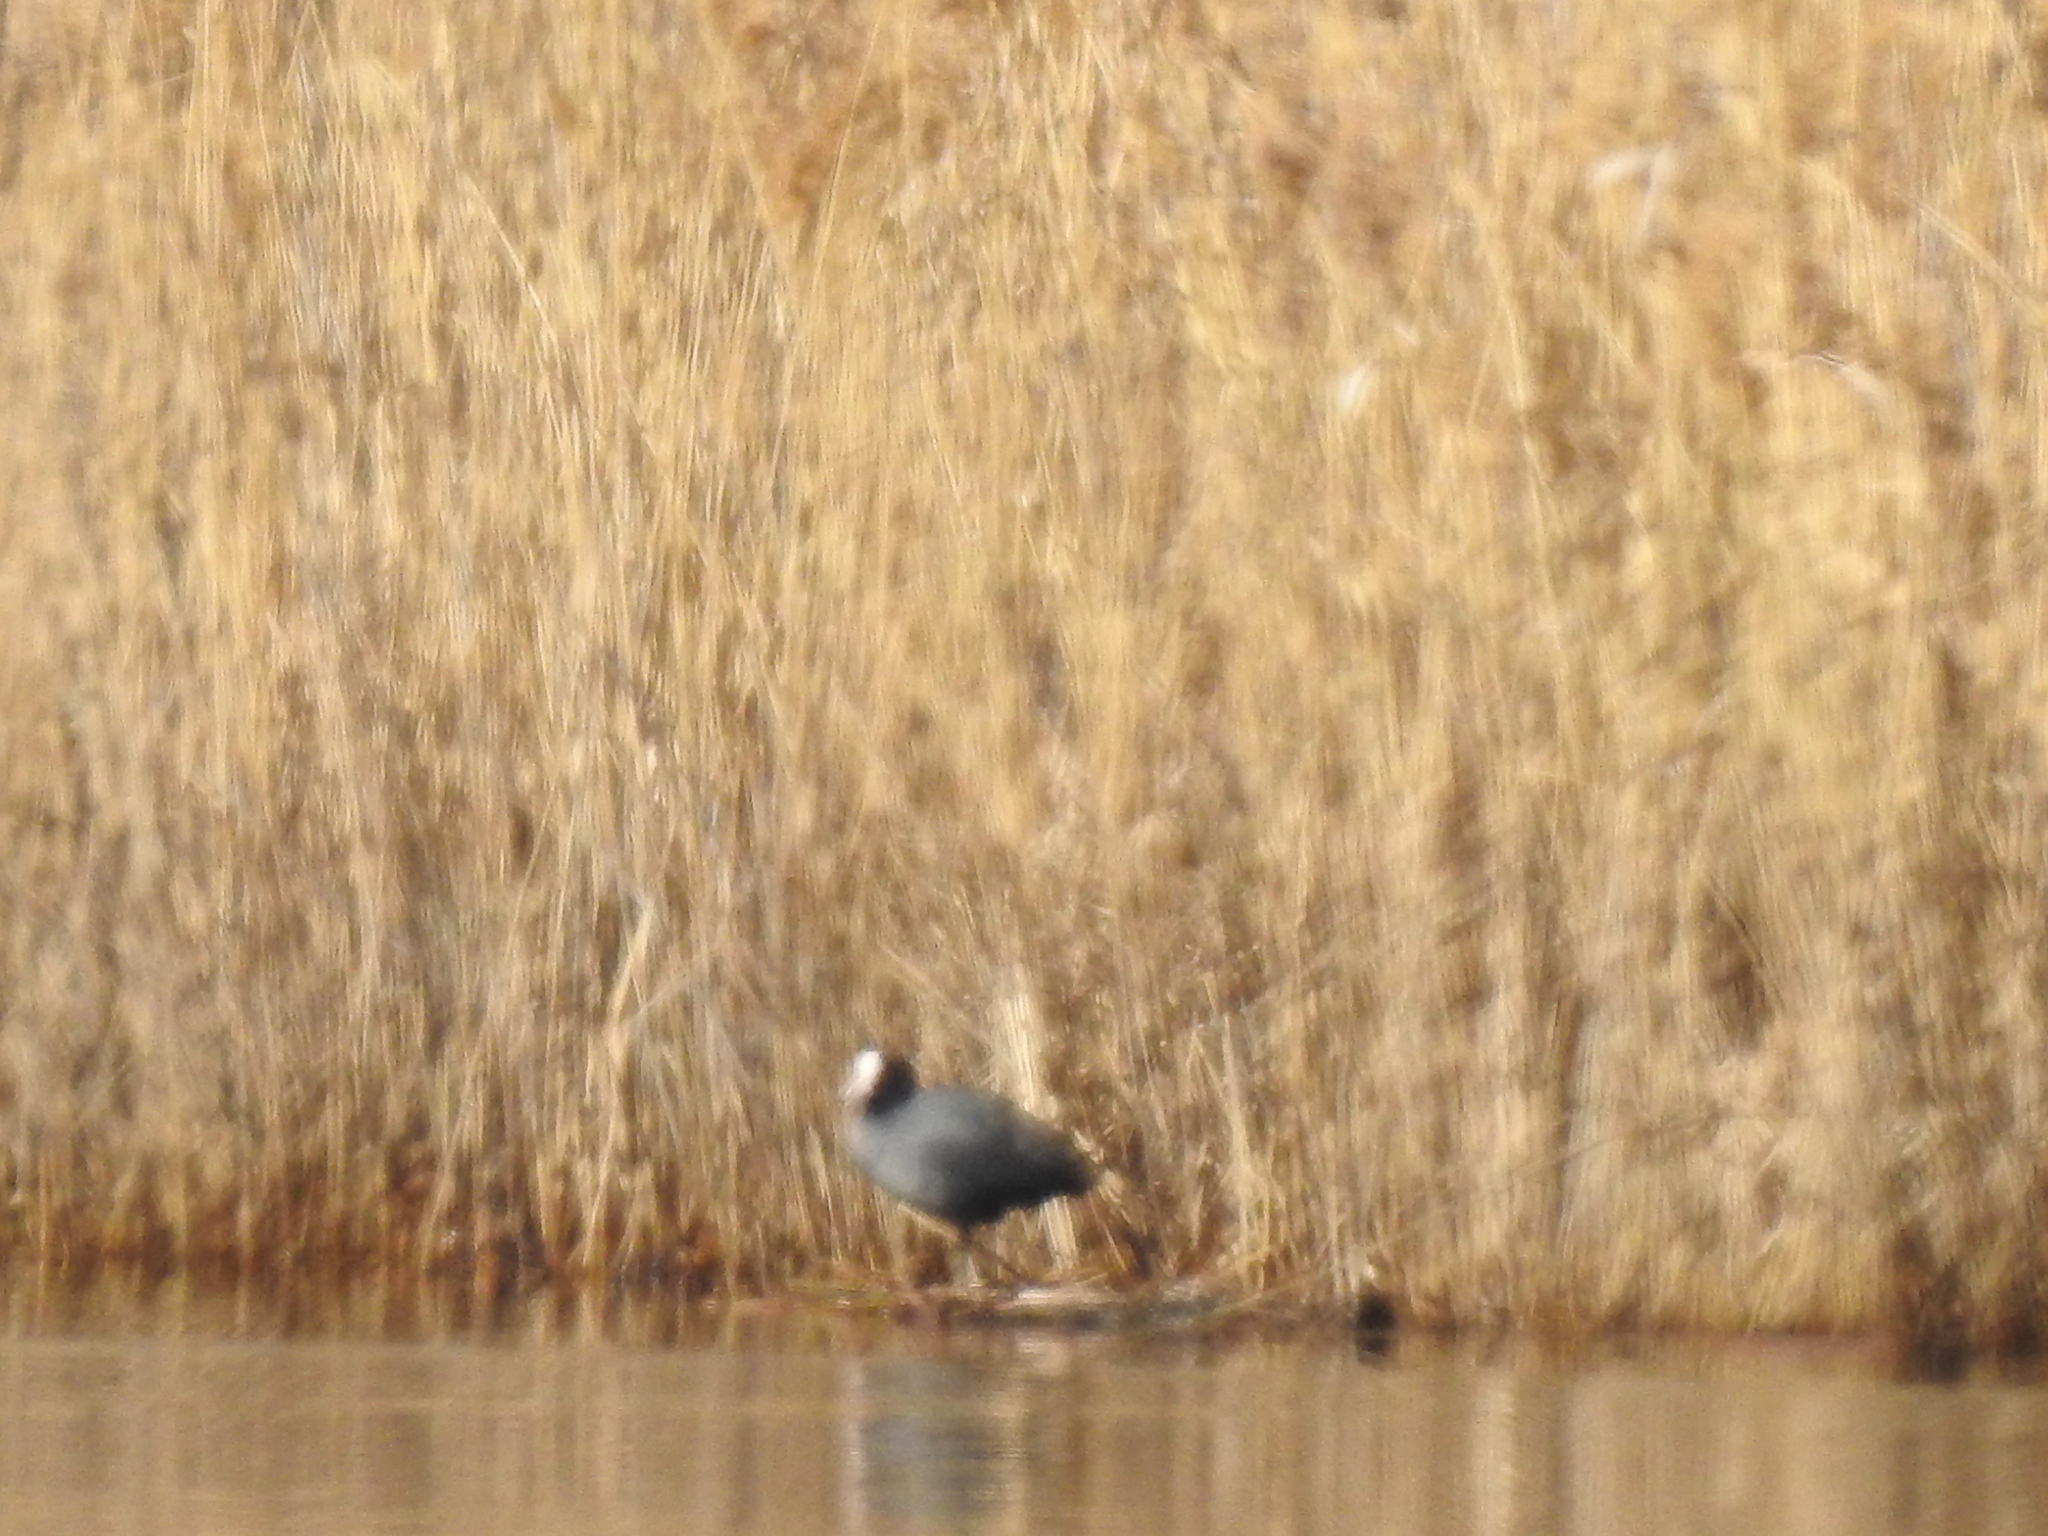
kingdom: Animalia
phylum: Chordata
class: Aves
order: Gruiformes
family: Rallidae
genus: Fulica
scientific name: Fulica atra
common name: Eurasian coot
